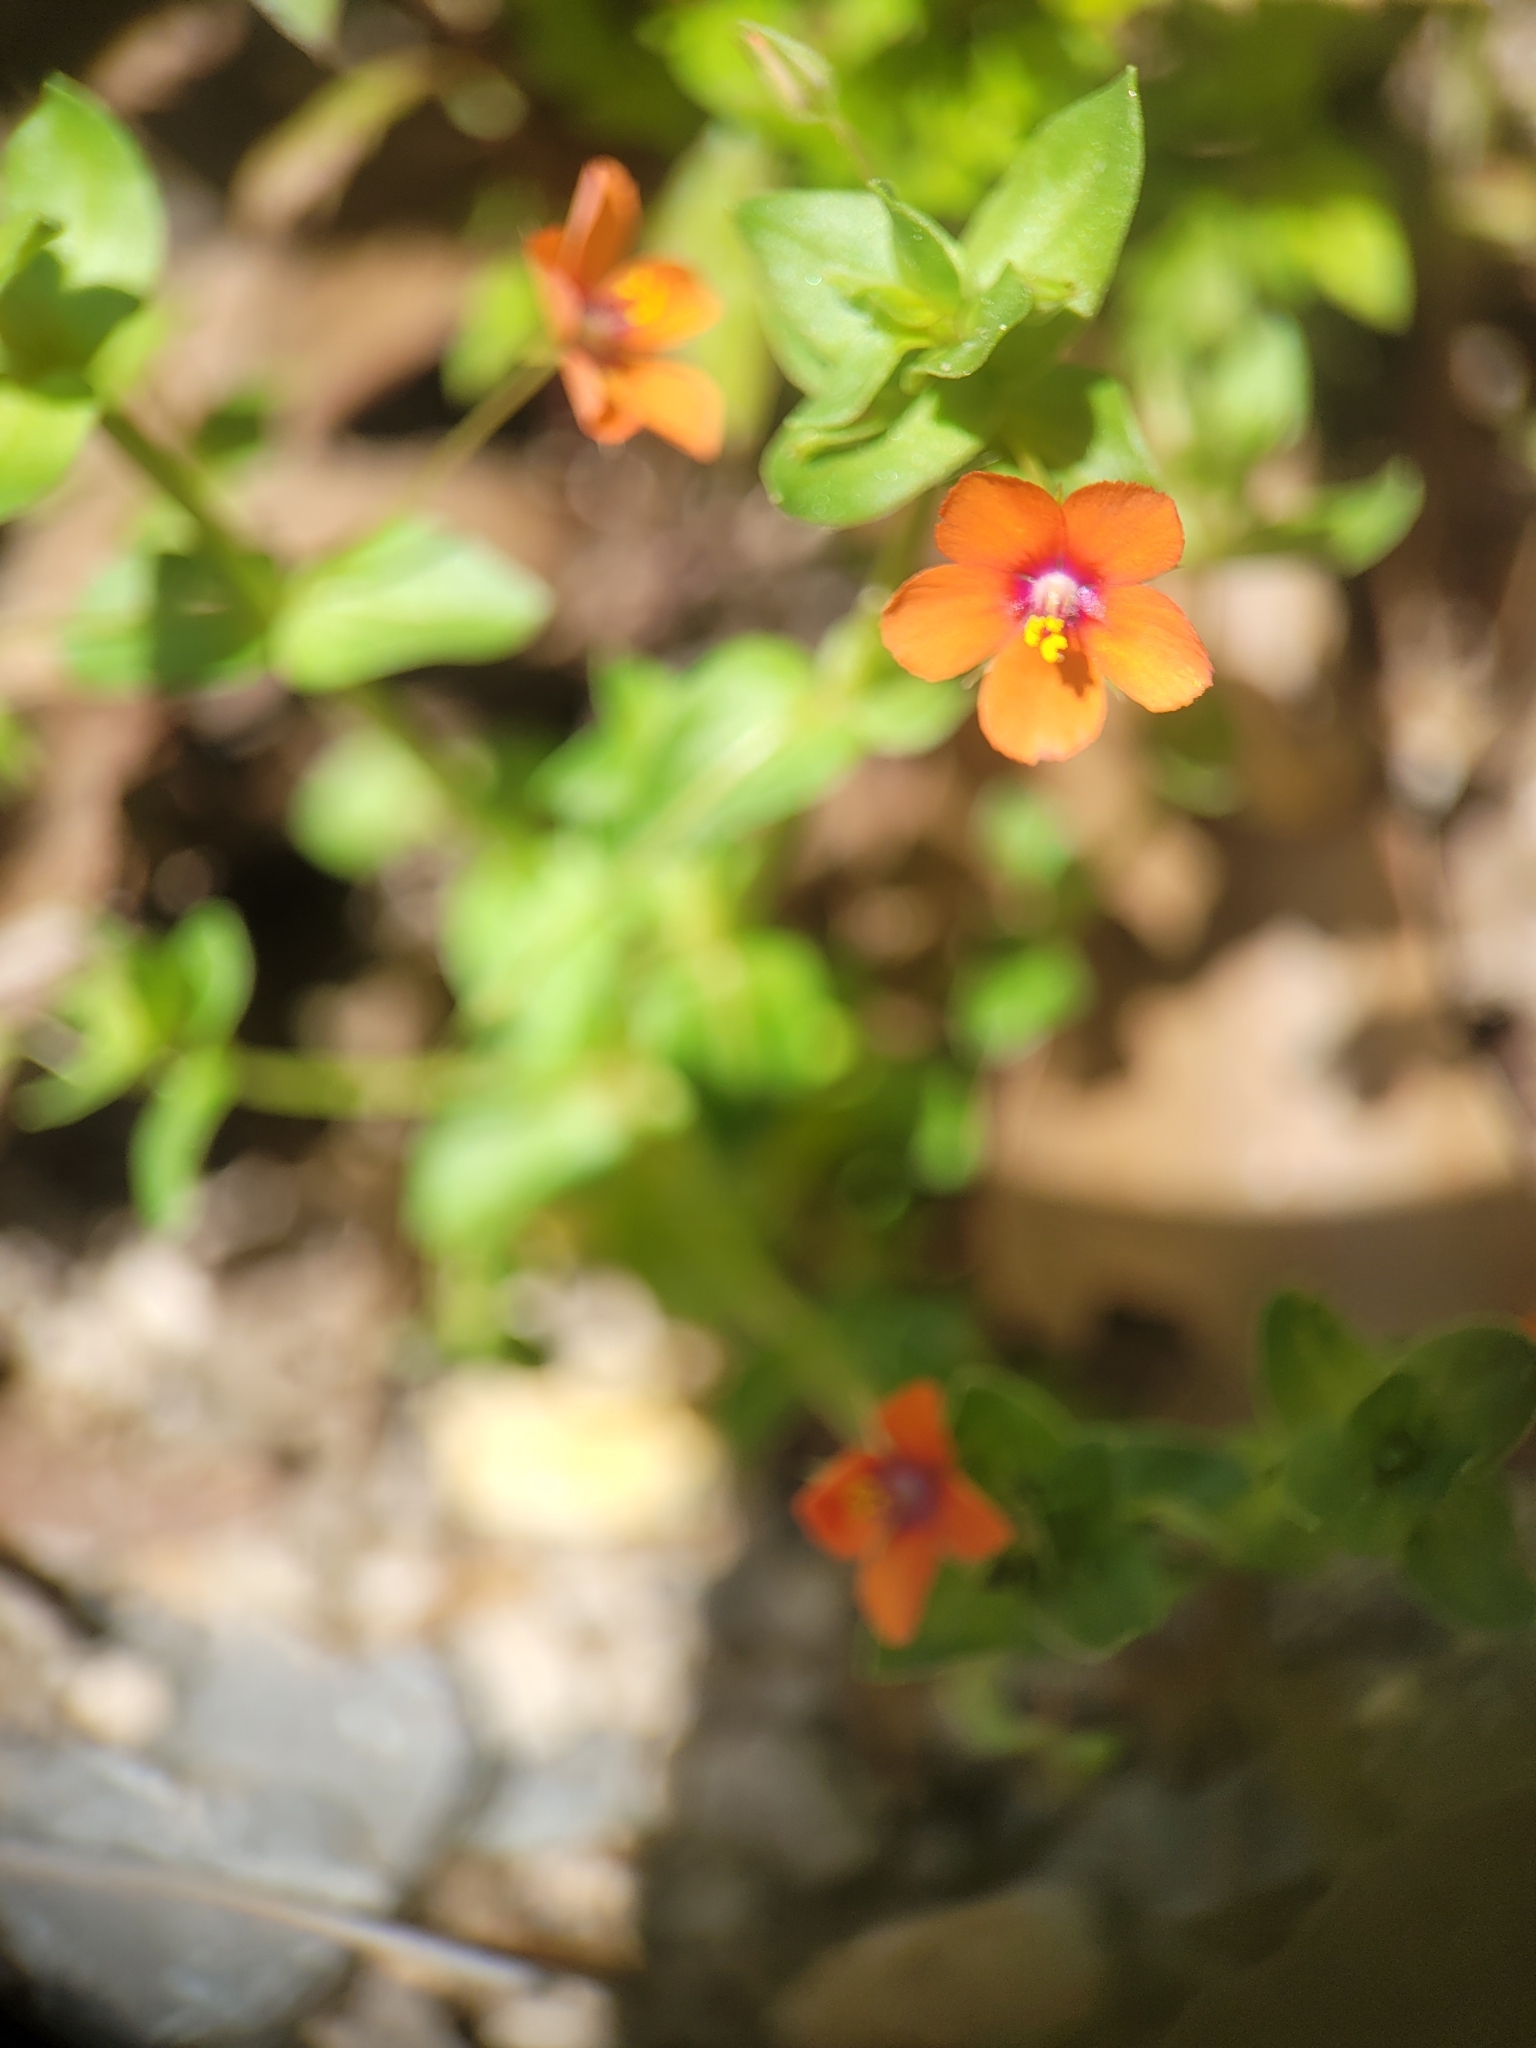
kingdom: Plantae
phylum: Tracheophyta
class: Magnoliopsida
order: Ericales
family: Primulaceae
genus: Lysimachia
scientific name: Lysimachia arvensis
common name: Scarlet pimpernel
